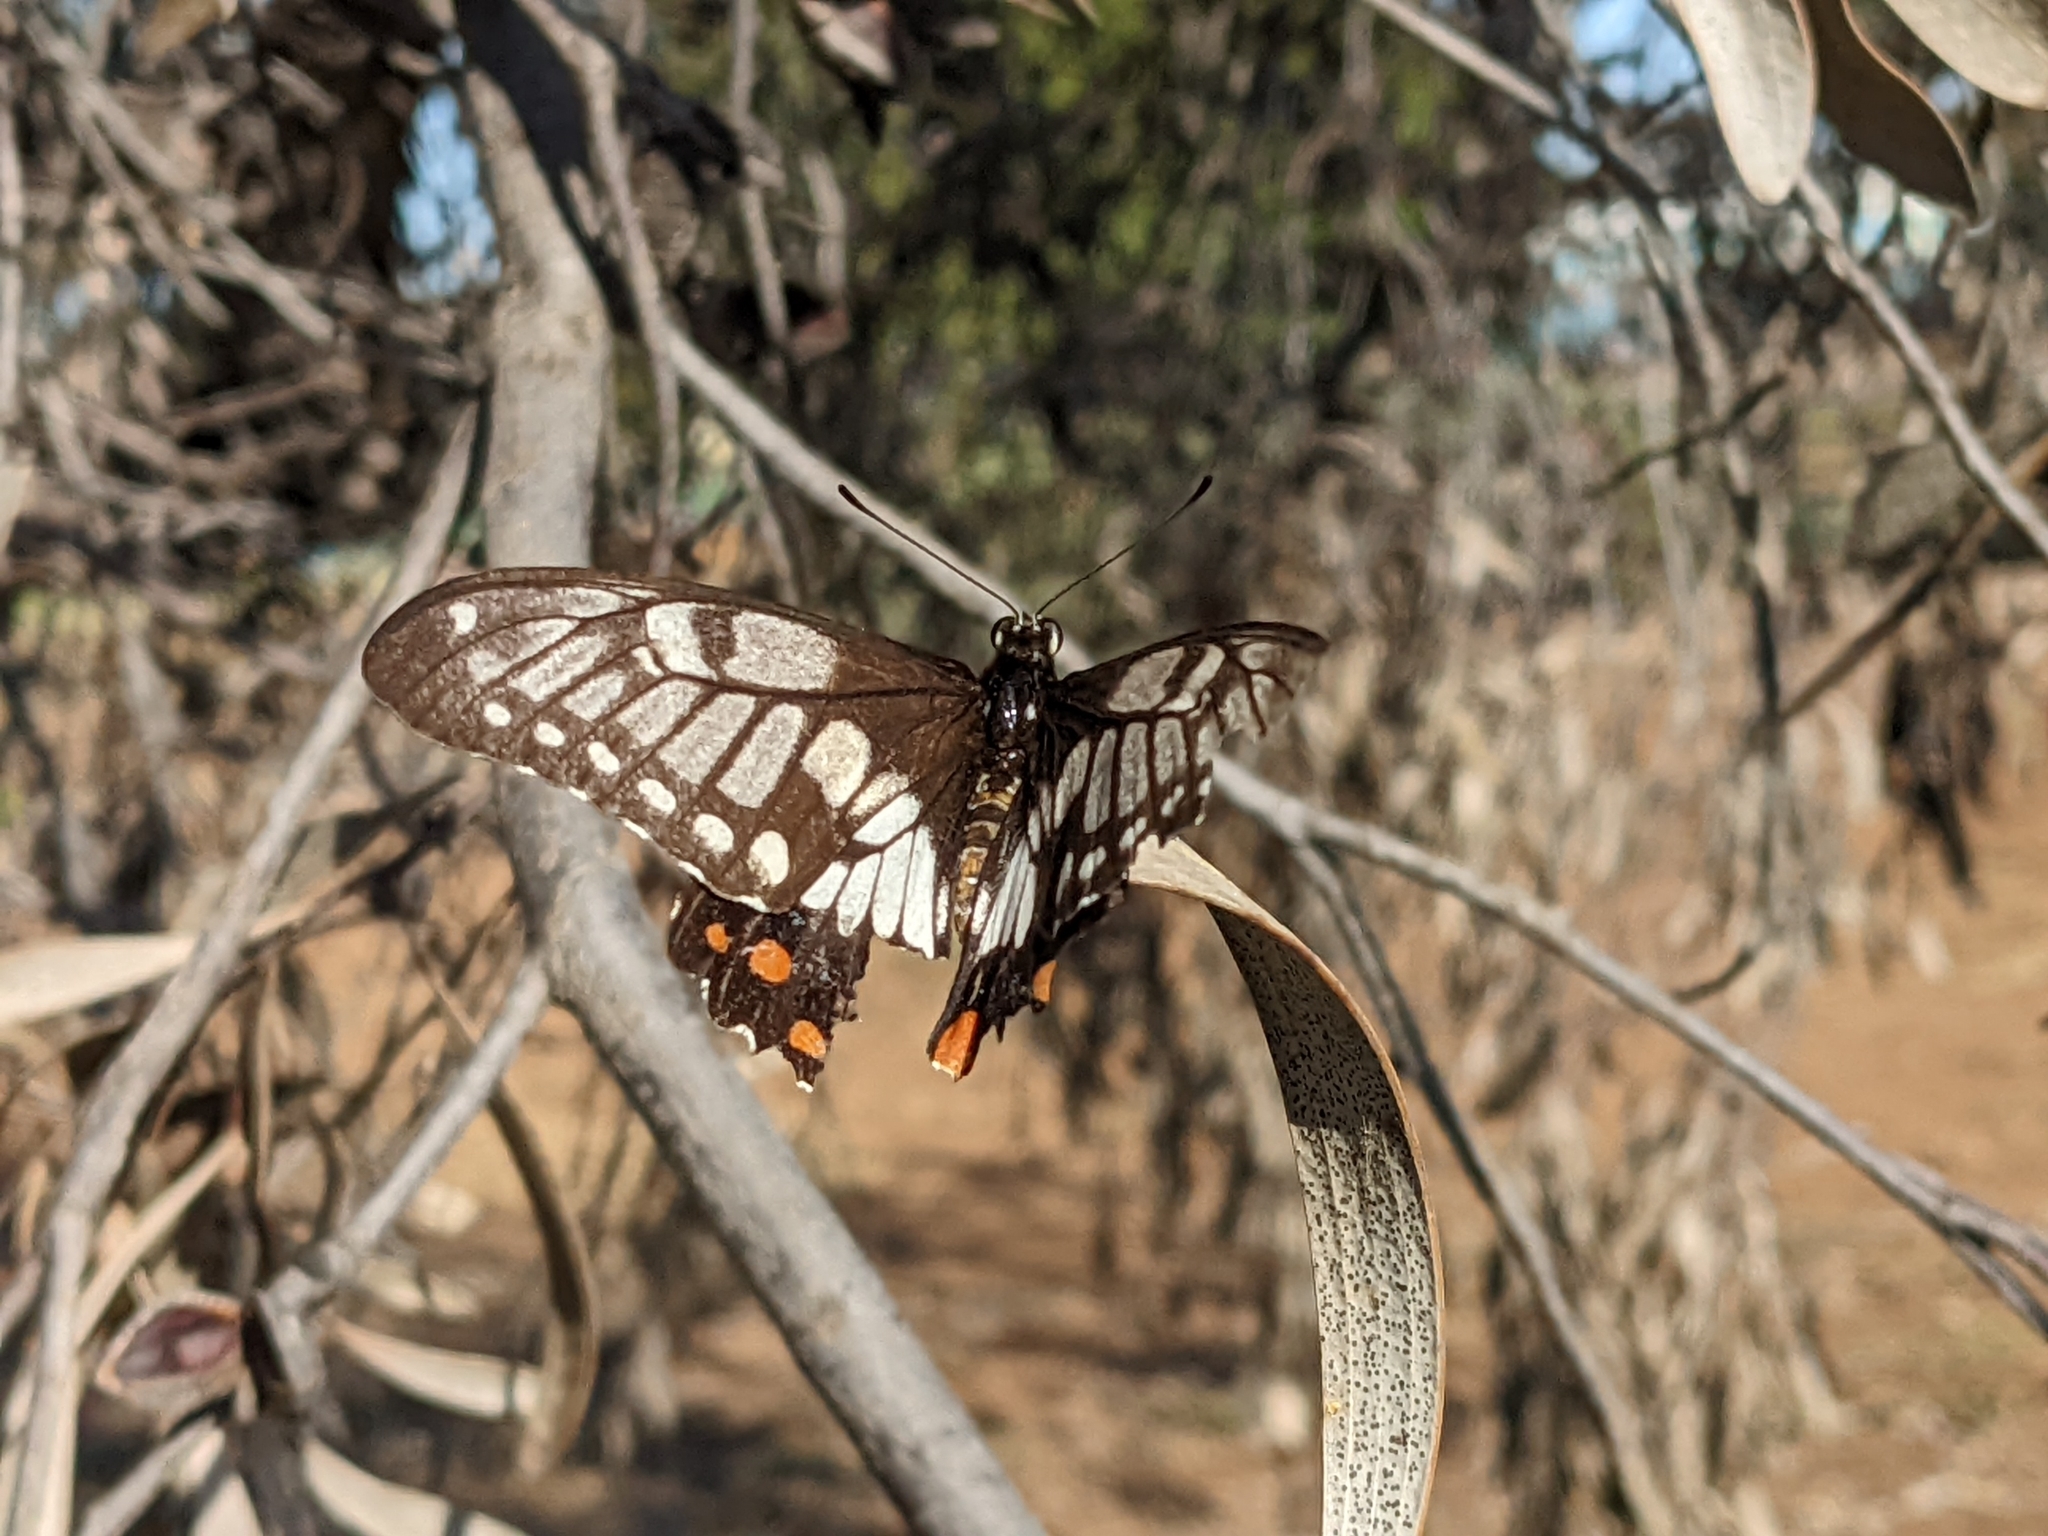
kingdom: Animalia
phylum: Arthropoda
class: Insecta
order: Lepidoptera
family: Papilionidae
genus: Papilio
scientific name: Papilio anactus
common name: Dingy swallowtail
